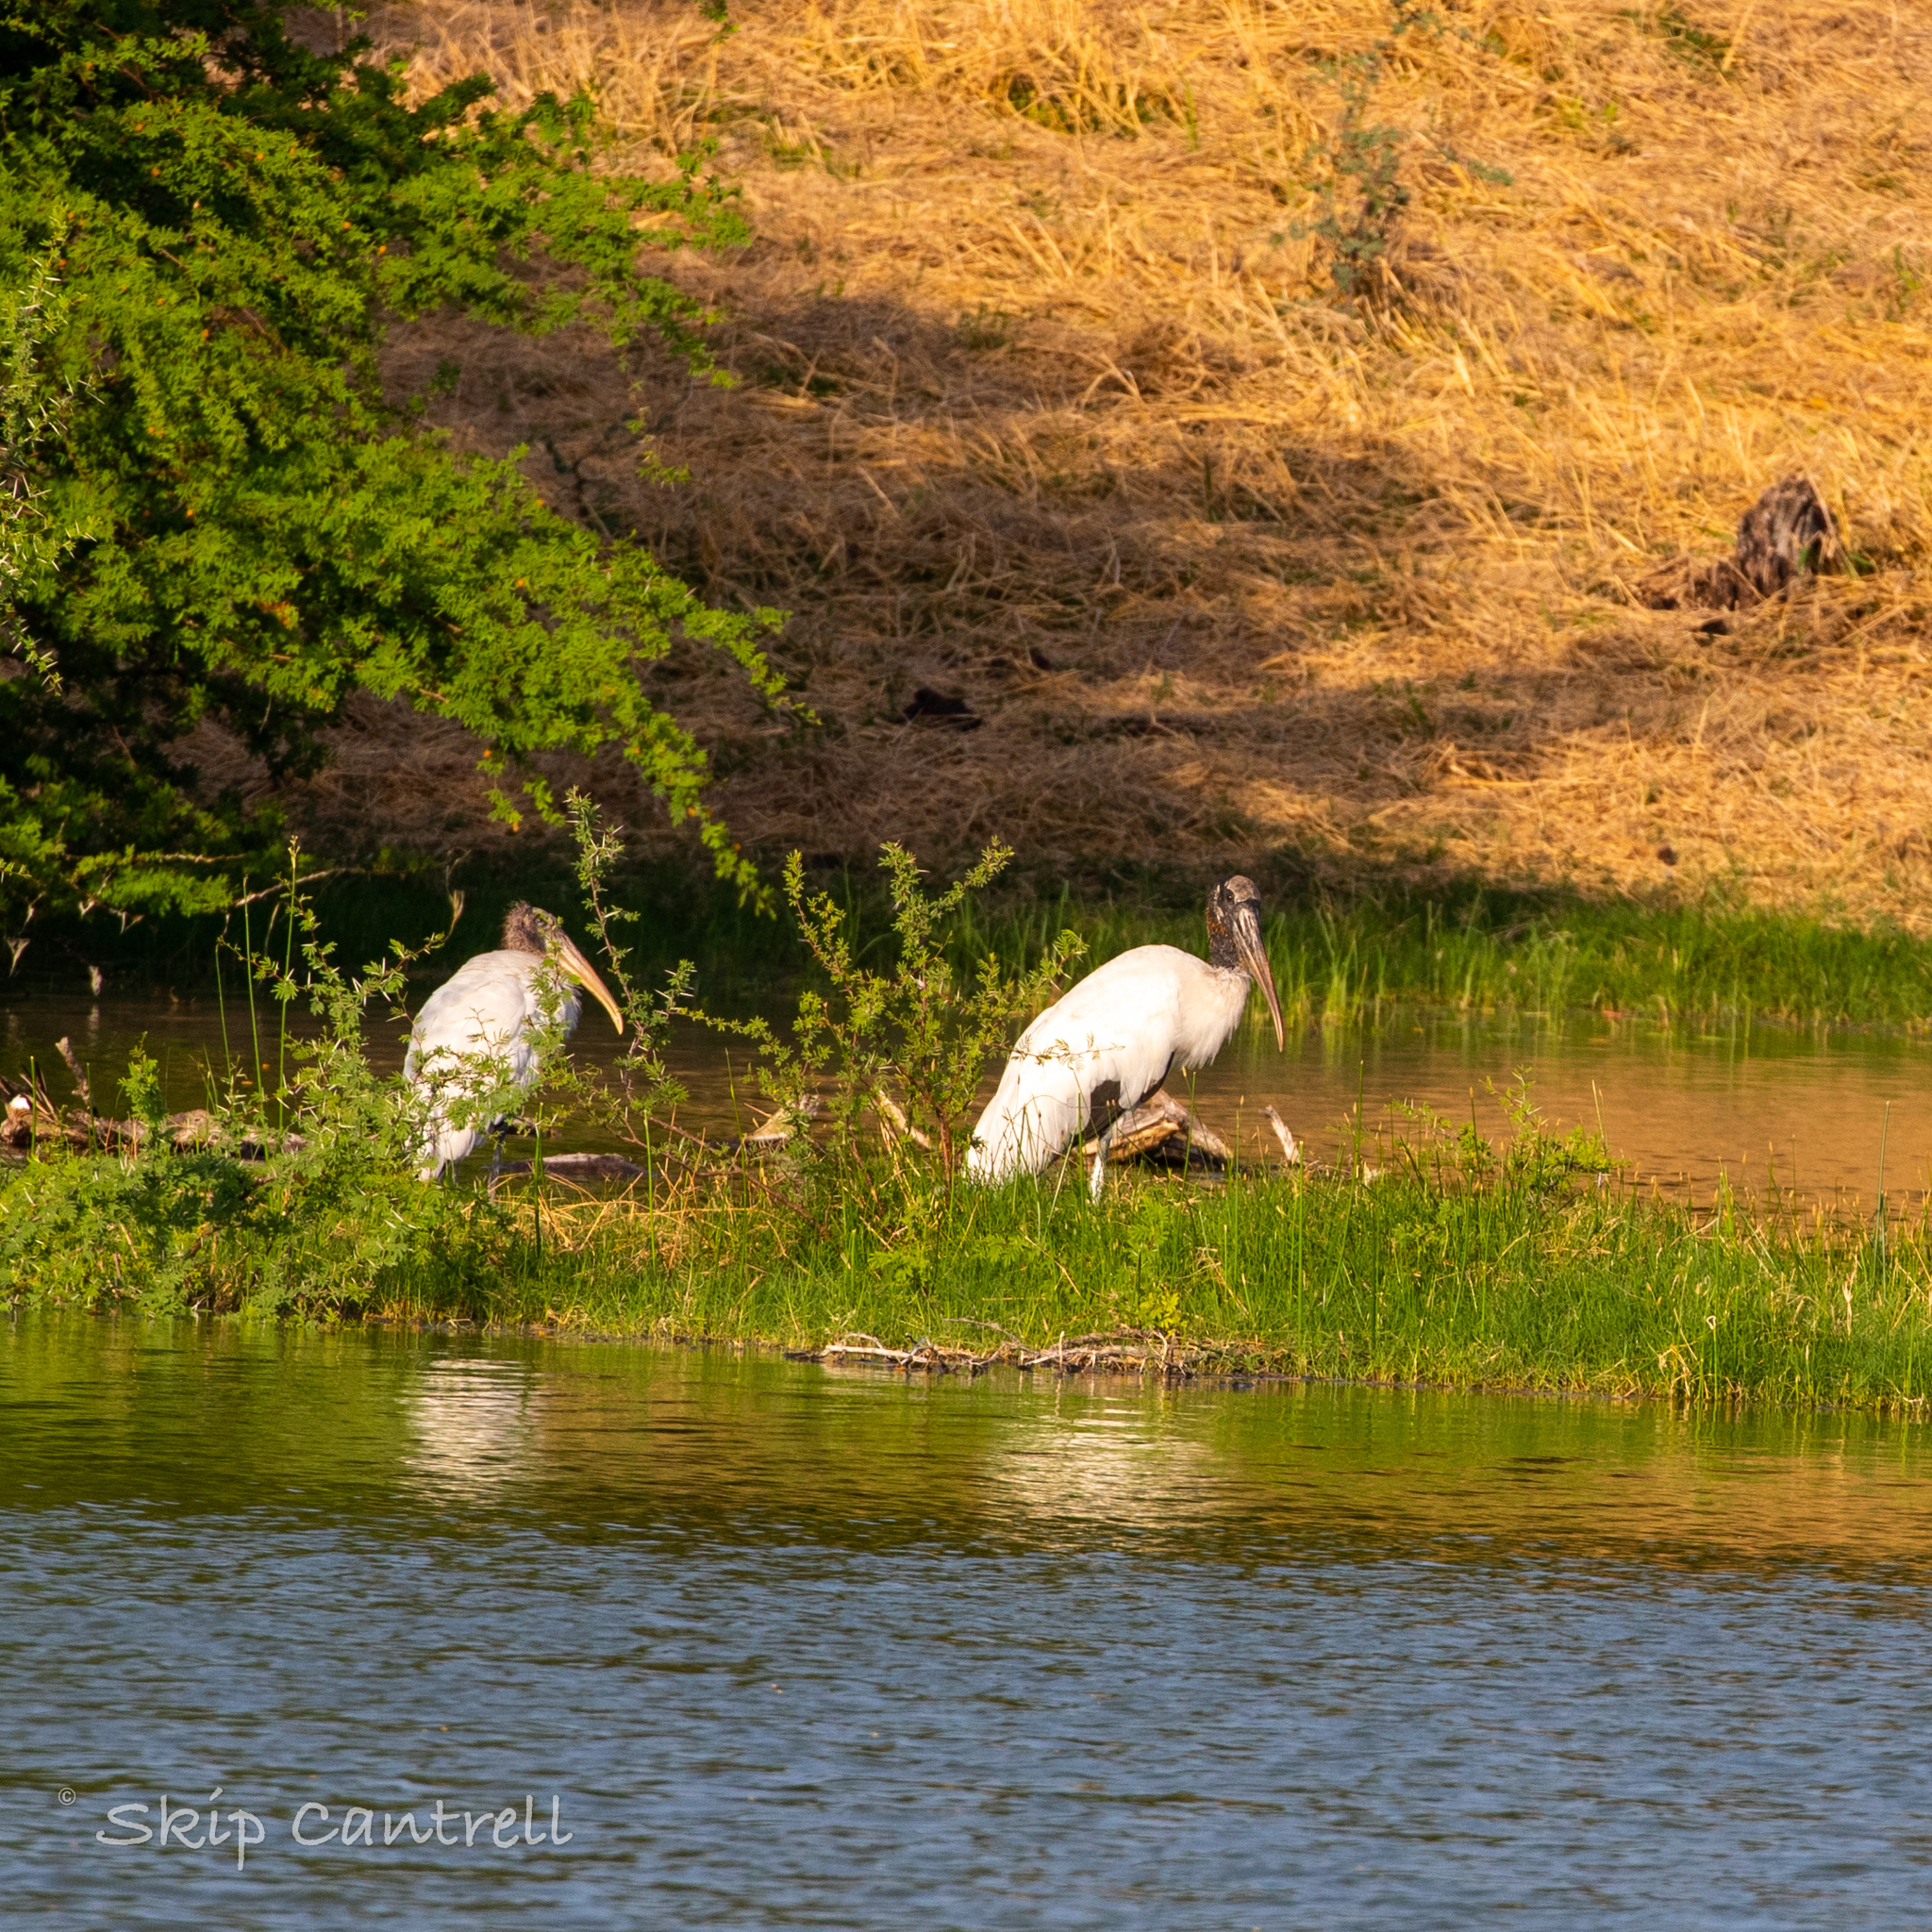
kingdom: Animalia
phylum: Chordata
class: Aves
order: Ciconiiformes
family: Ciconiidae
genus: Mycteria
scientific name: Mycteria americana
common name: Wood stork
